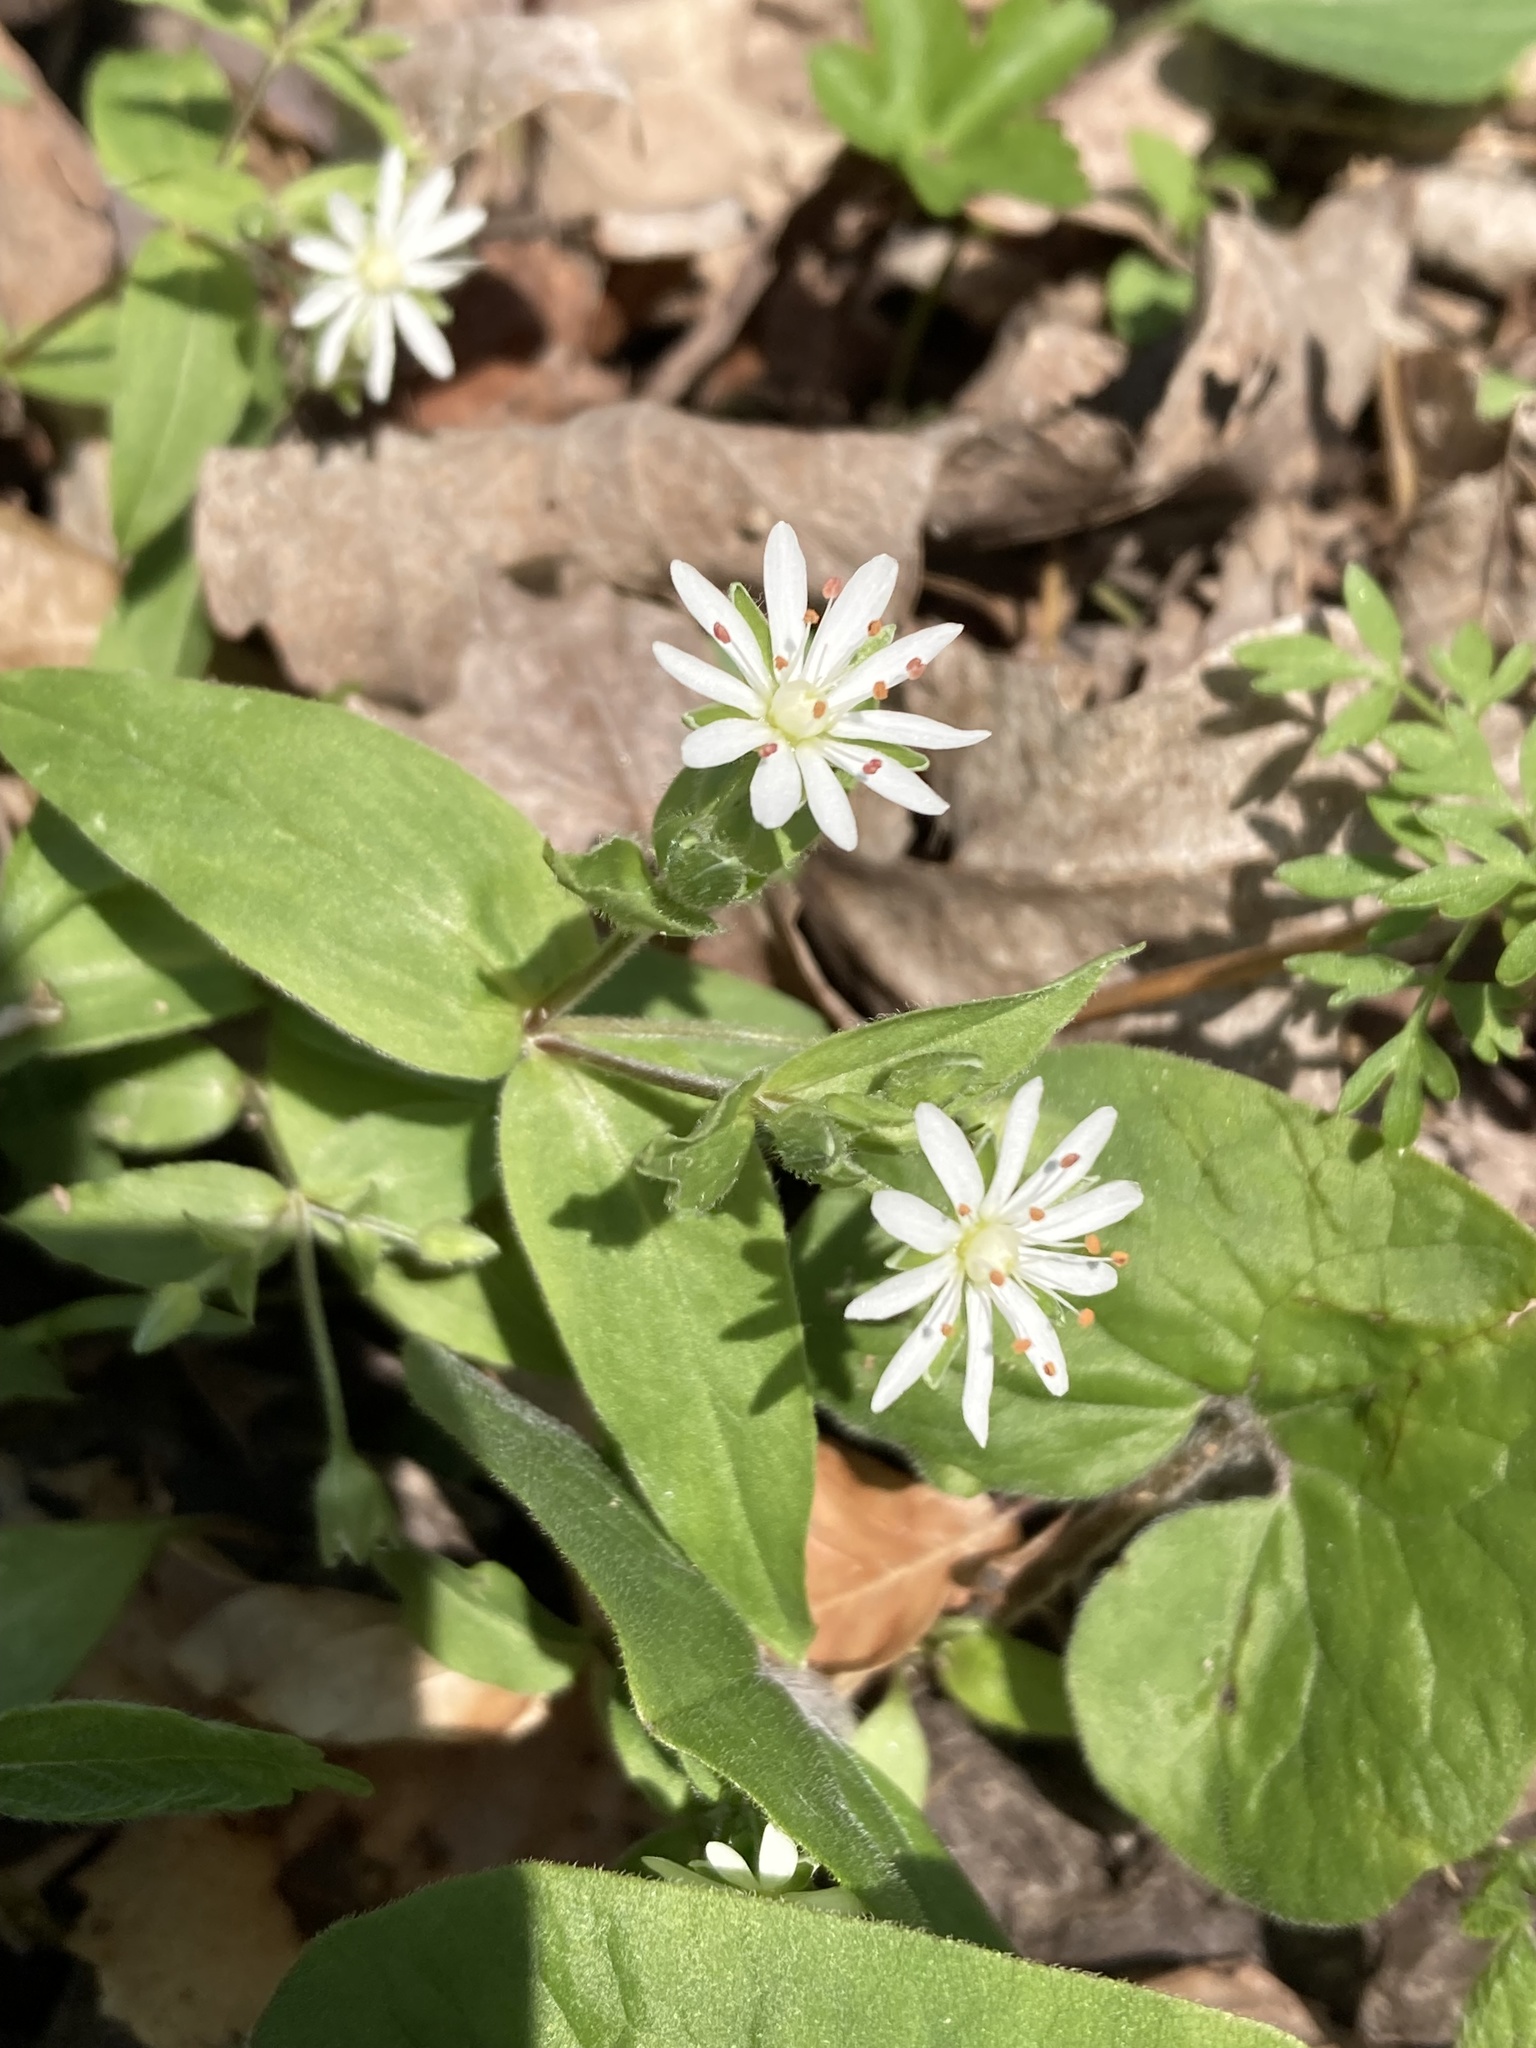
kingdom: Plantae
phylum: Tracheophyta
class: Magnoliopsida
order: Caryophyllales
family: Caryophyllaceae
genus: Stellaria
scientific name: Stellaria pubera
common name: Star chickweed
